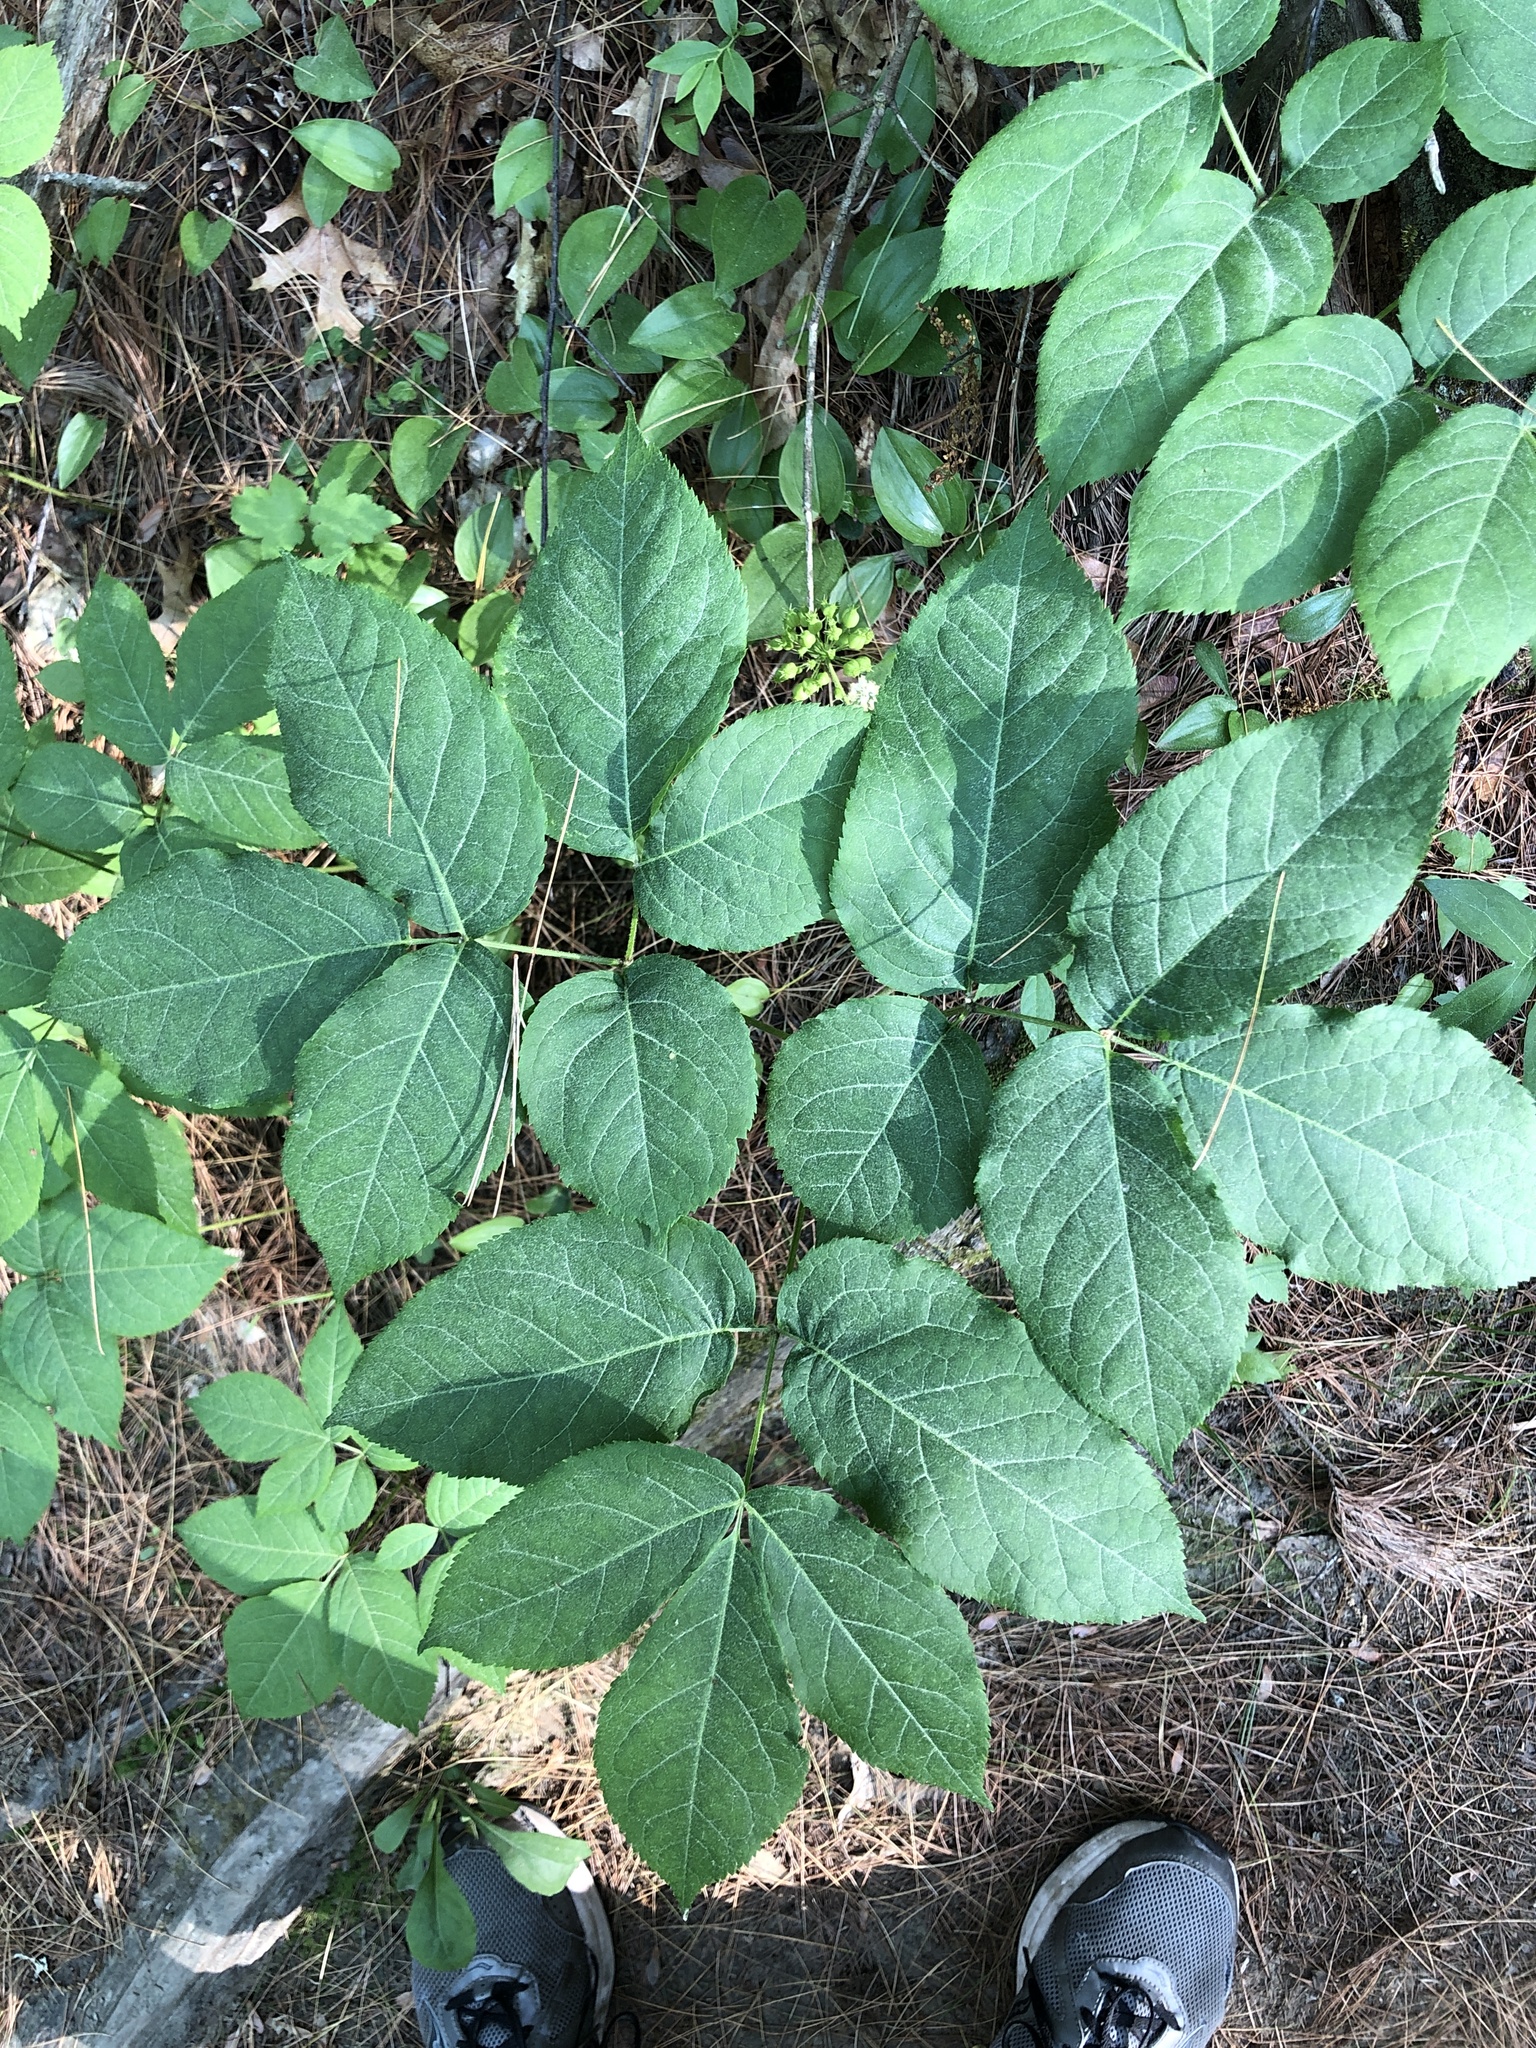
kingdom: Plantae
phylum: Tracheophyta
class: Magnoliopsida
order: Apiales
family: Araliaceae
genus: Aralia
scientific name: Aralia nudicaulis
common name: Wild sarsaparilla
